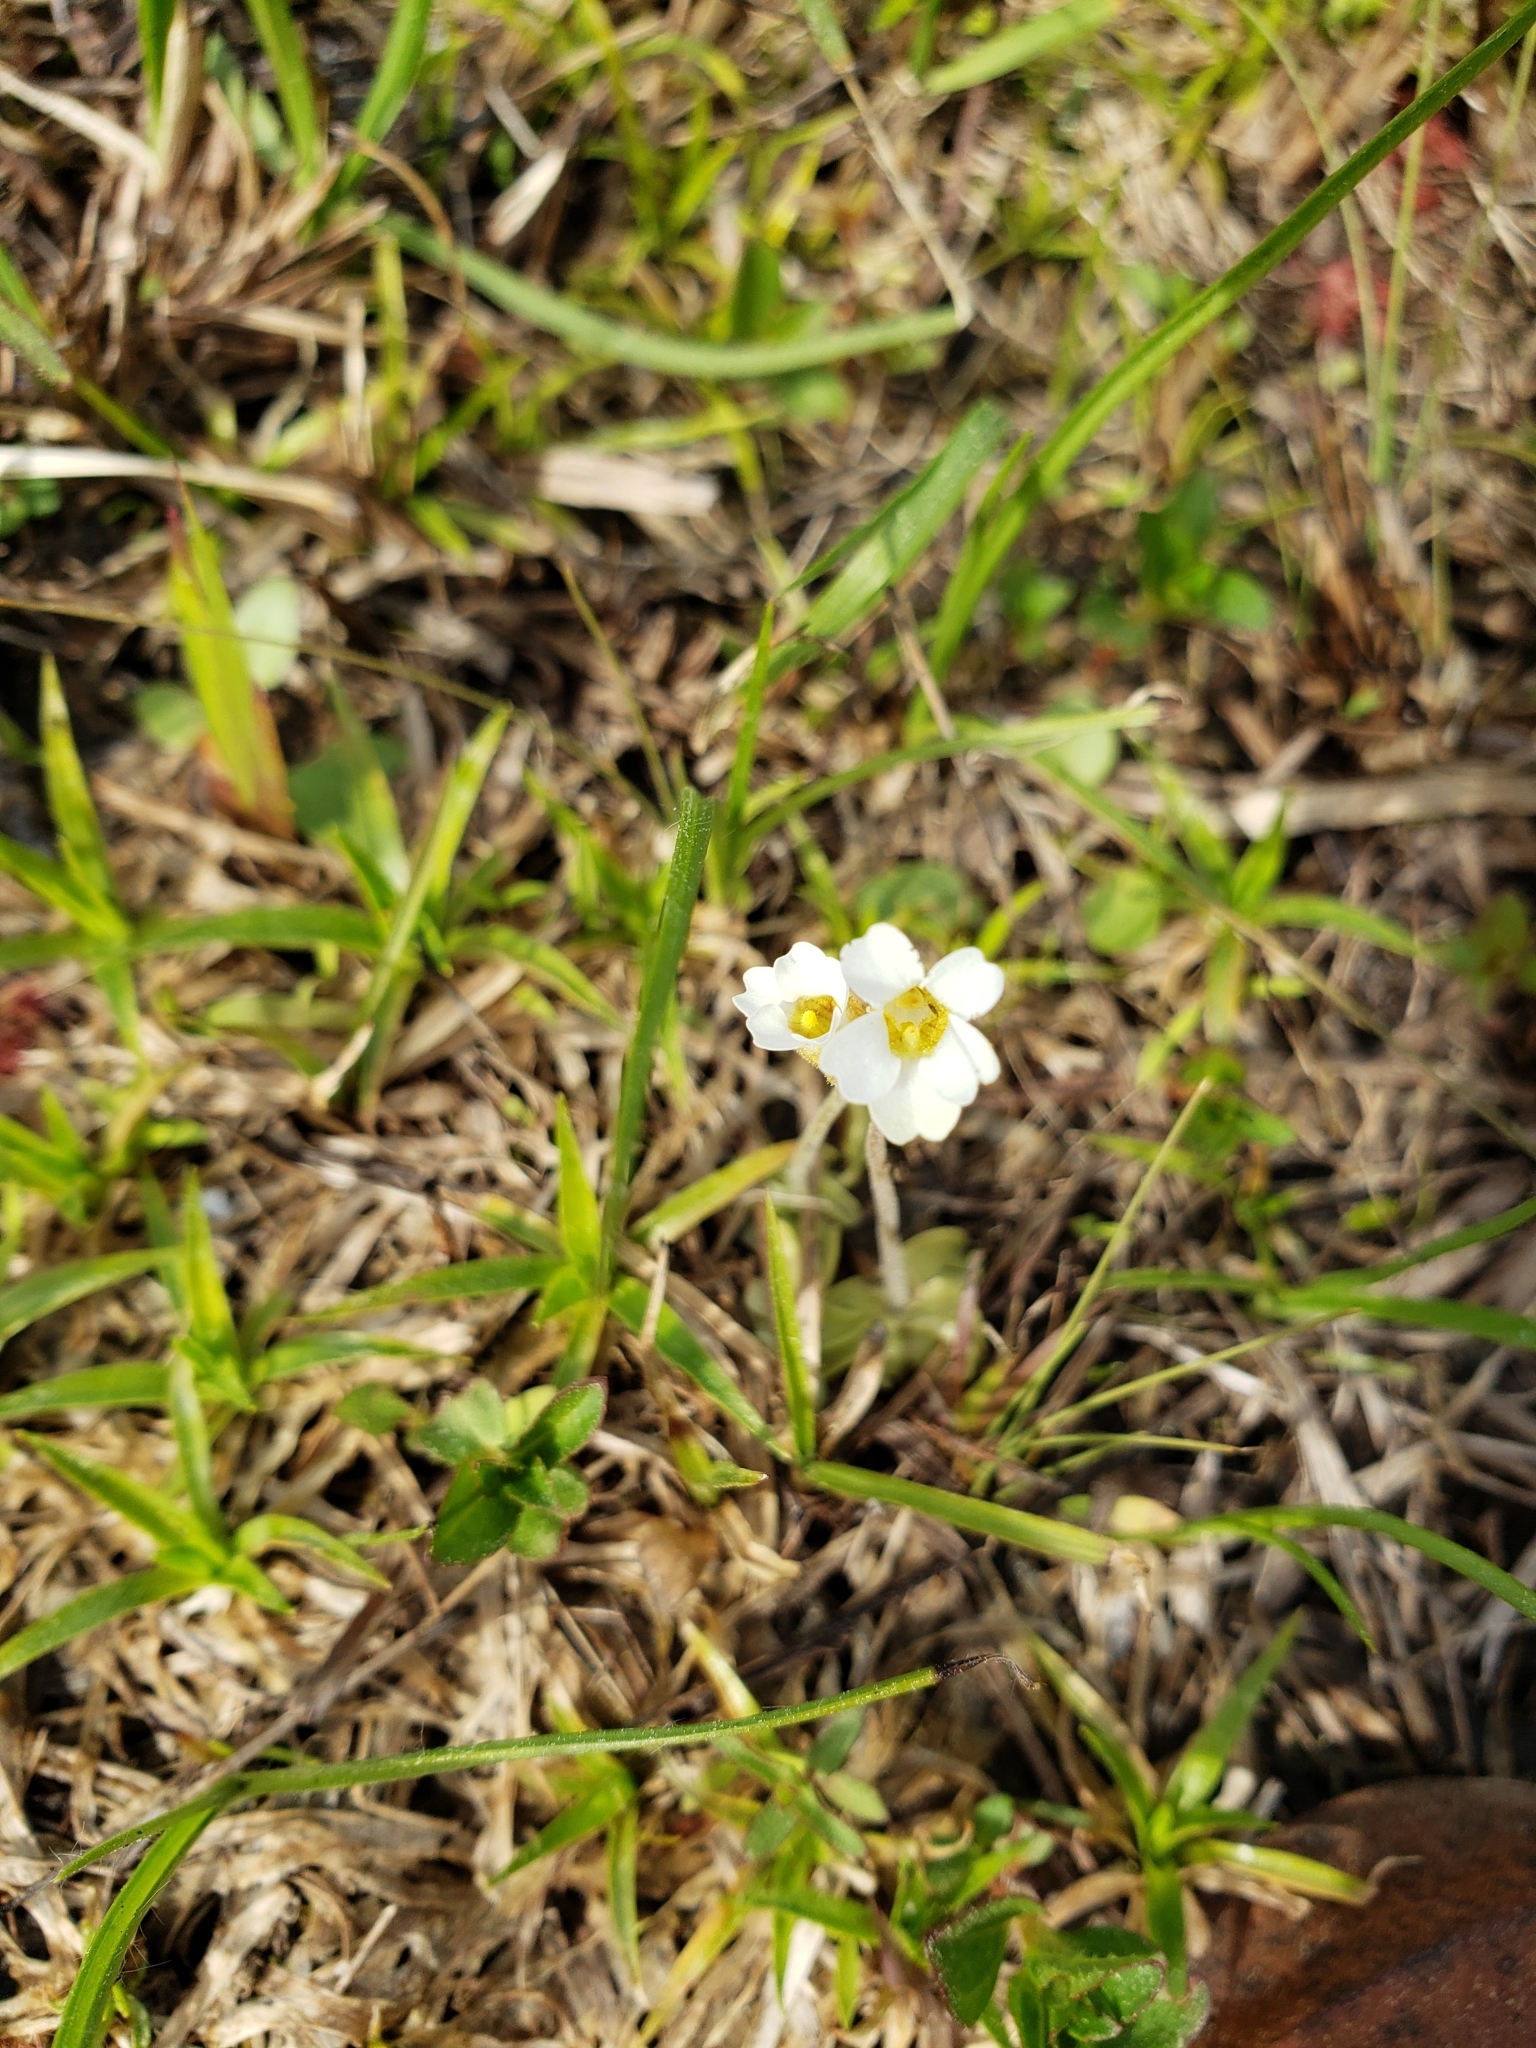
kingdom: Plantae
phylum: Tracheophyta
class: Magnoliopsida
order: Lamiales
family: Lentibulariaceae
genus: Pinguicula
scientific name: Pinguicula pumila
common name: Small butterwort
